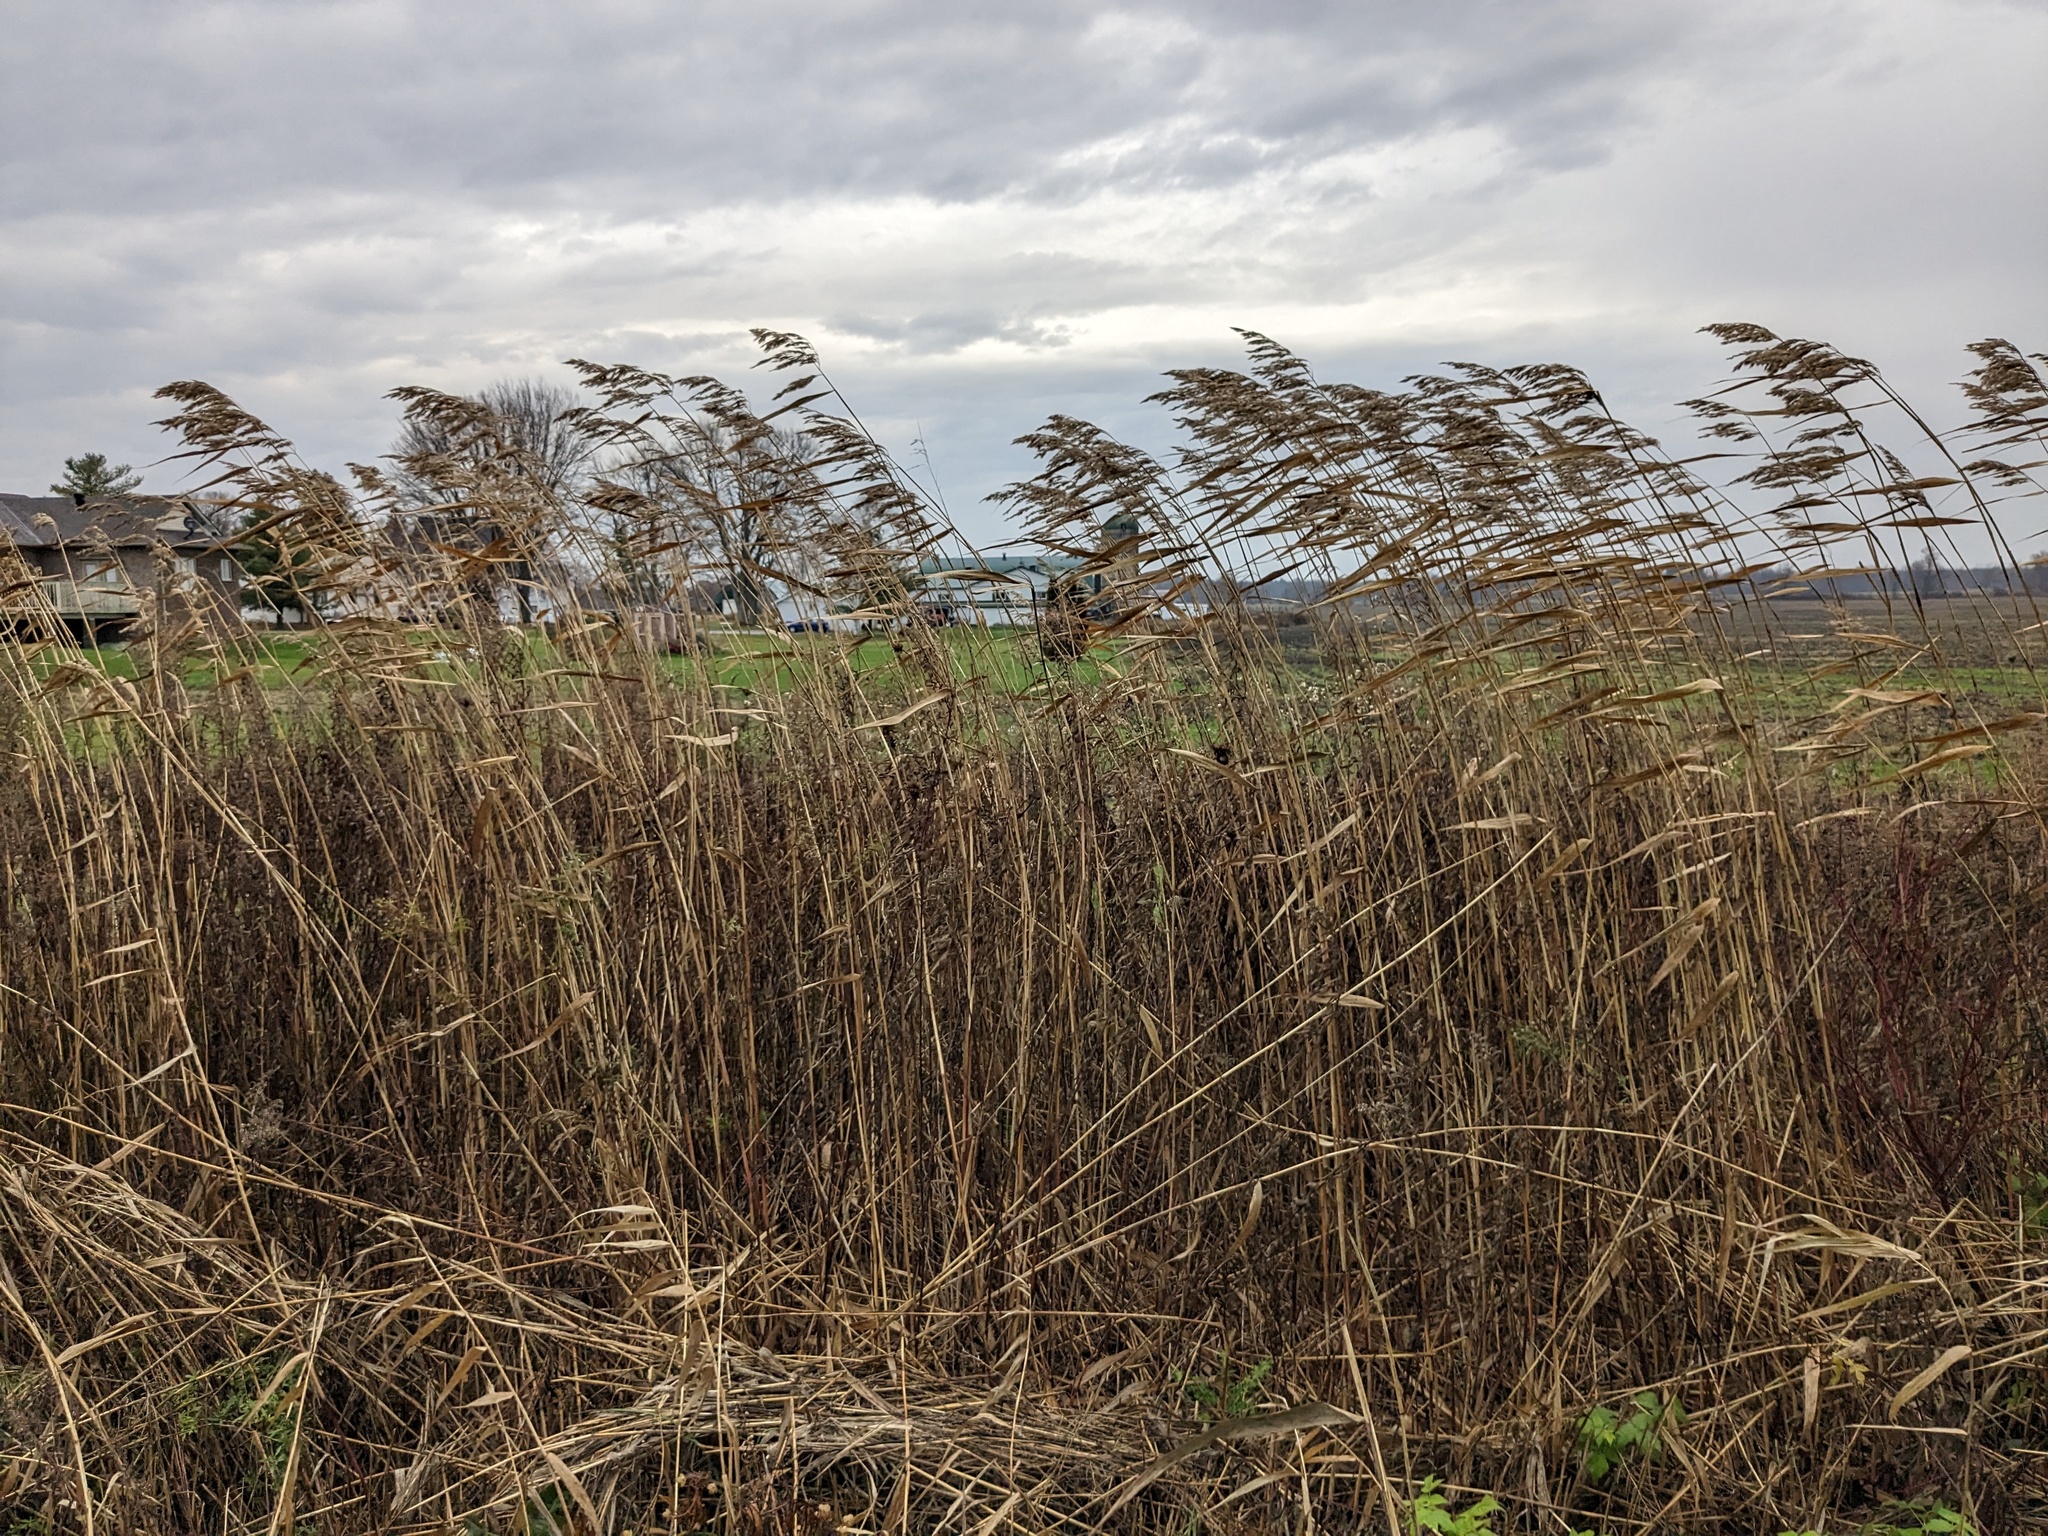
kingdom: Plantae
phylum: Tracheophyta
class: Liliopsida
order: Poales
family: Poaceae
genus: Phragmites
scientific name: Phragmites australis
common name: Common reed
